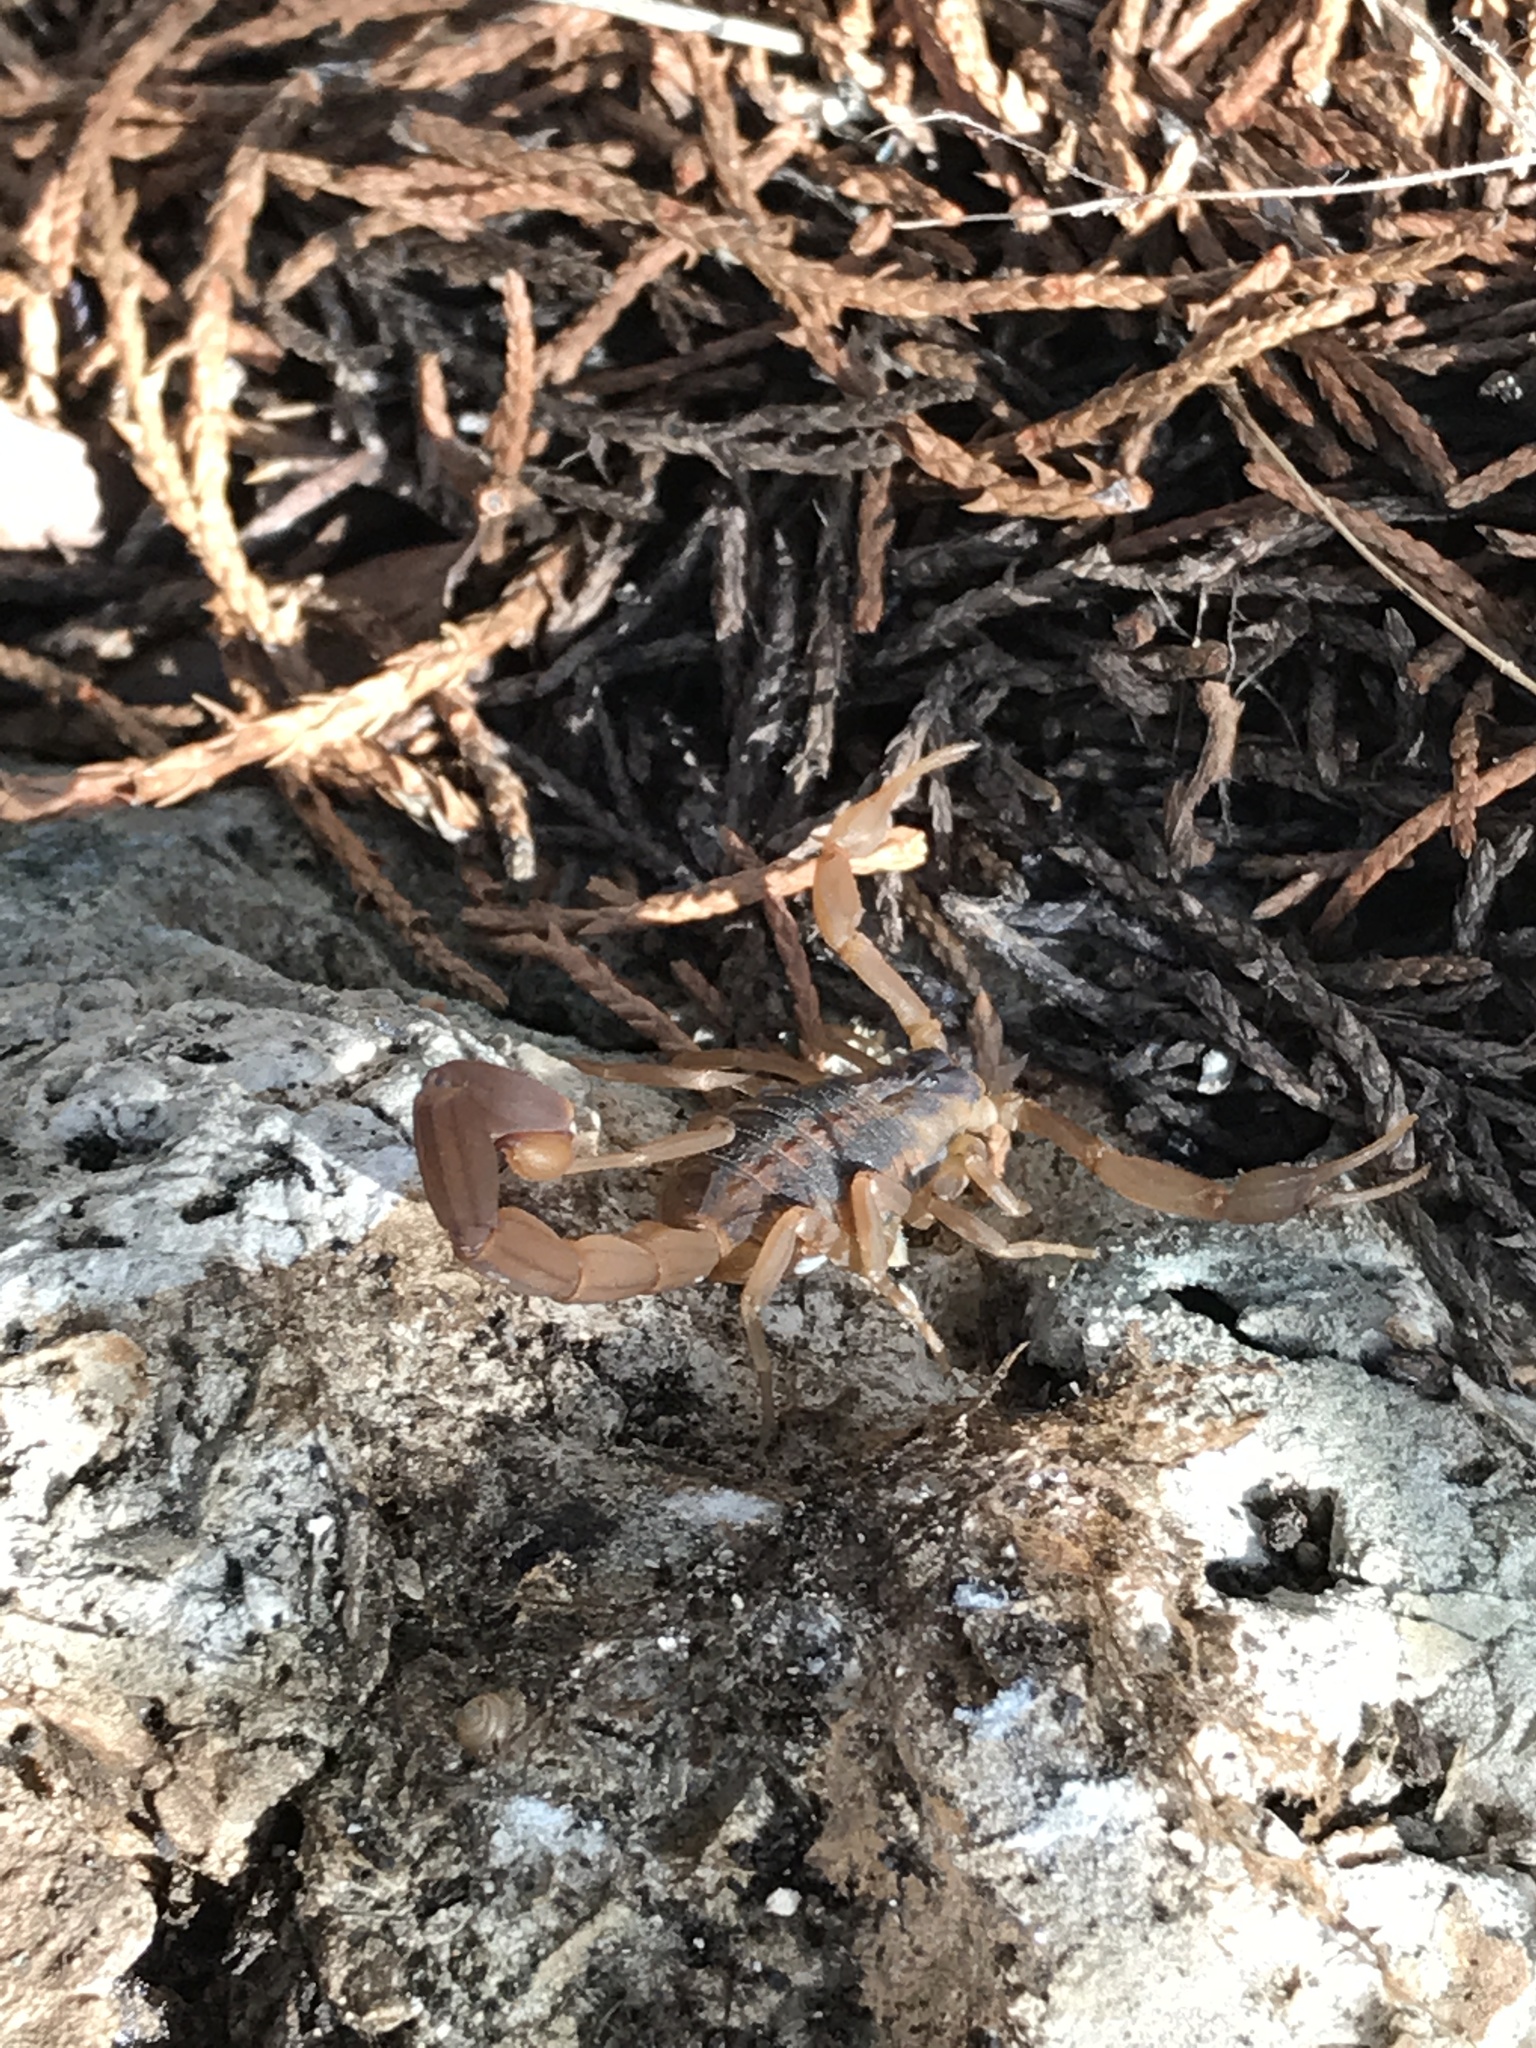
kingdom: Animalia
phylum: Arthropoda
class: Arachnida
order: Scorpiones
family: Buthidae
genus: Centruroides
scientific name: Centruroides vittatus
